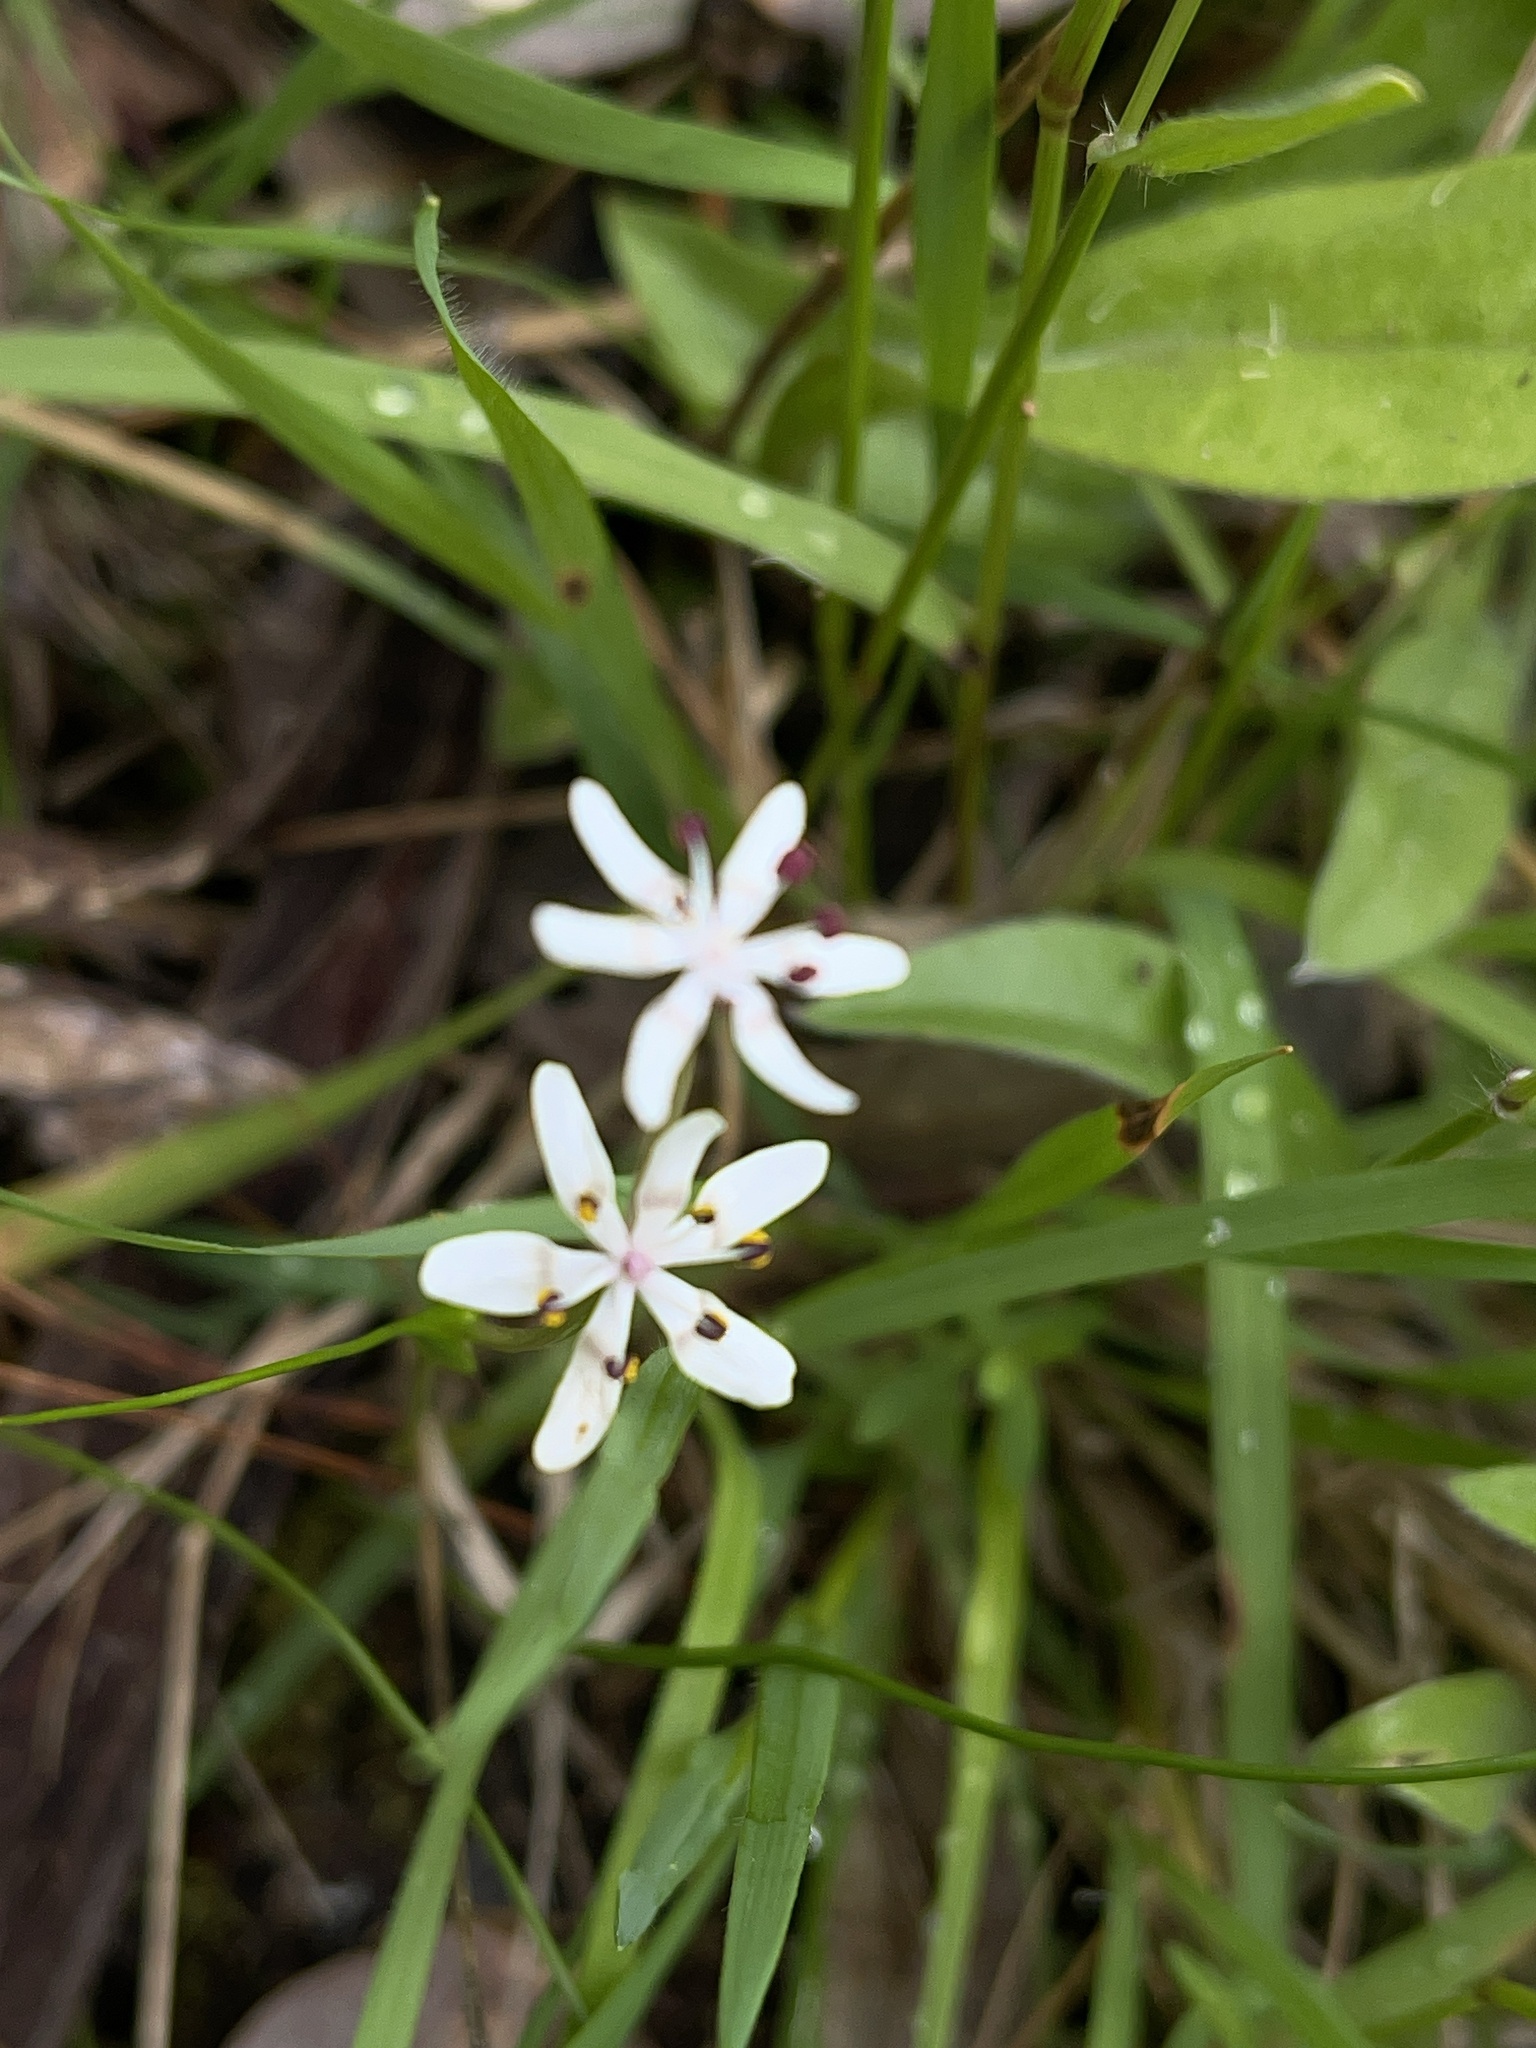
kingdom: Plantae
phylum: Tracheophyta
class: Liliopsida
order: Liliales
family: Colchicaceae
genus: Wurmbea
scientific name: Wurmbea dioica
